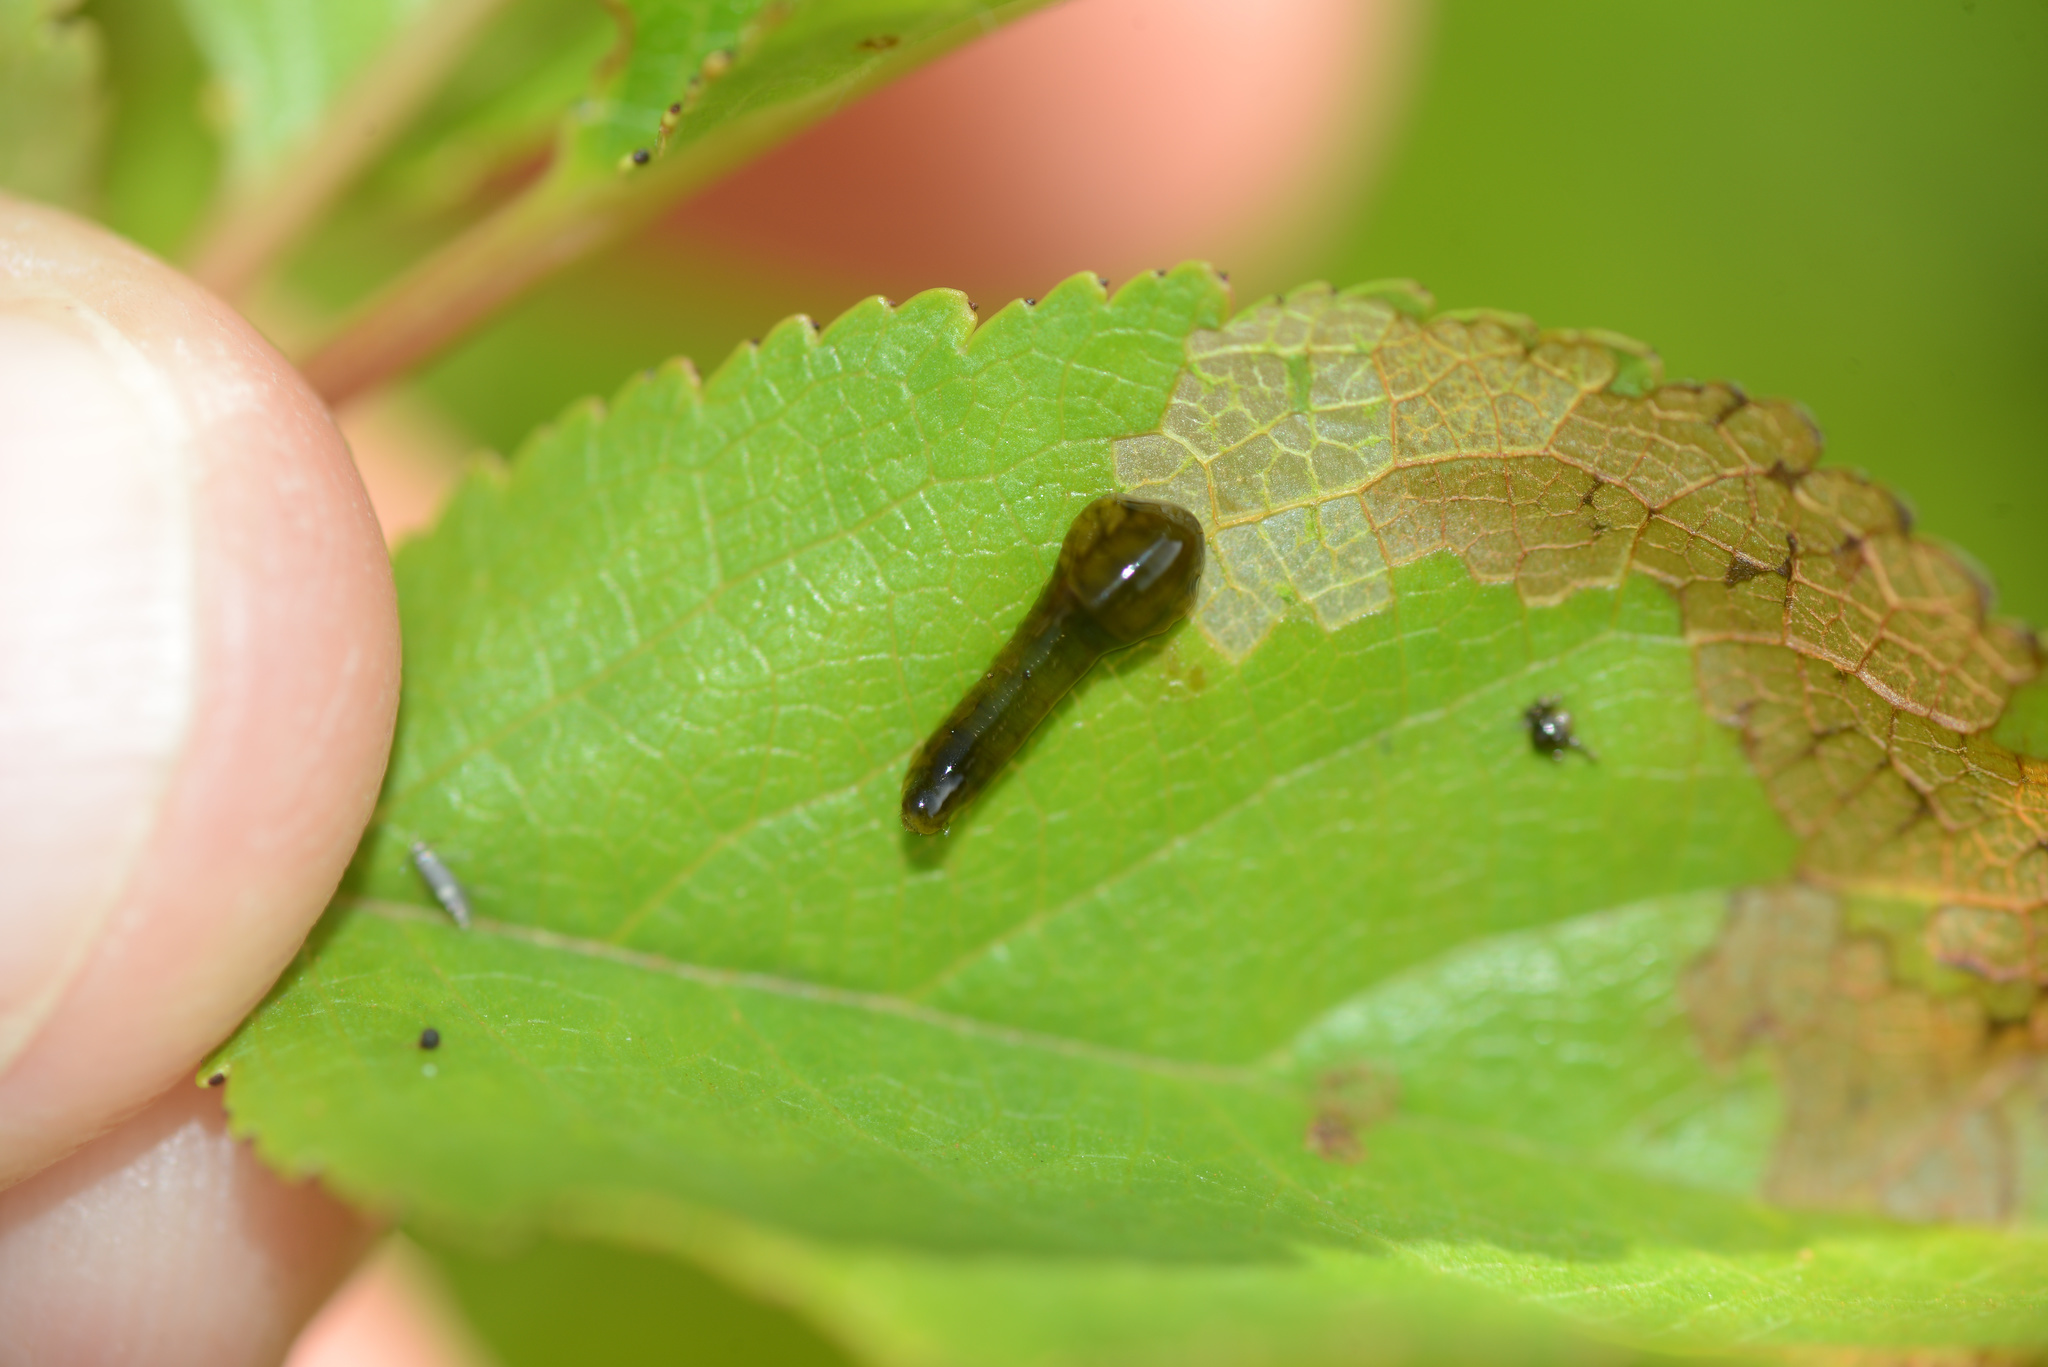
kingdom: Animalia
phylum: Arthropoda
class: Insecta
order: Hymenoptera
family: Tenthredinidae
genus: Caliroa
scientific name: Caliroa cerasi
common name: Pear sawfly
